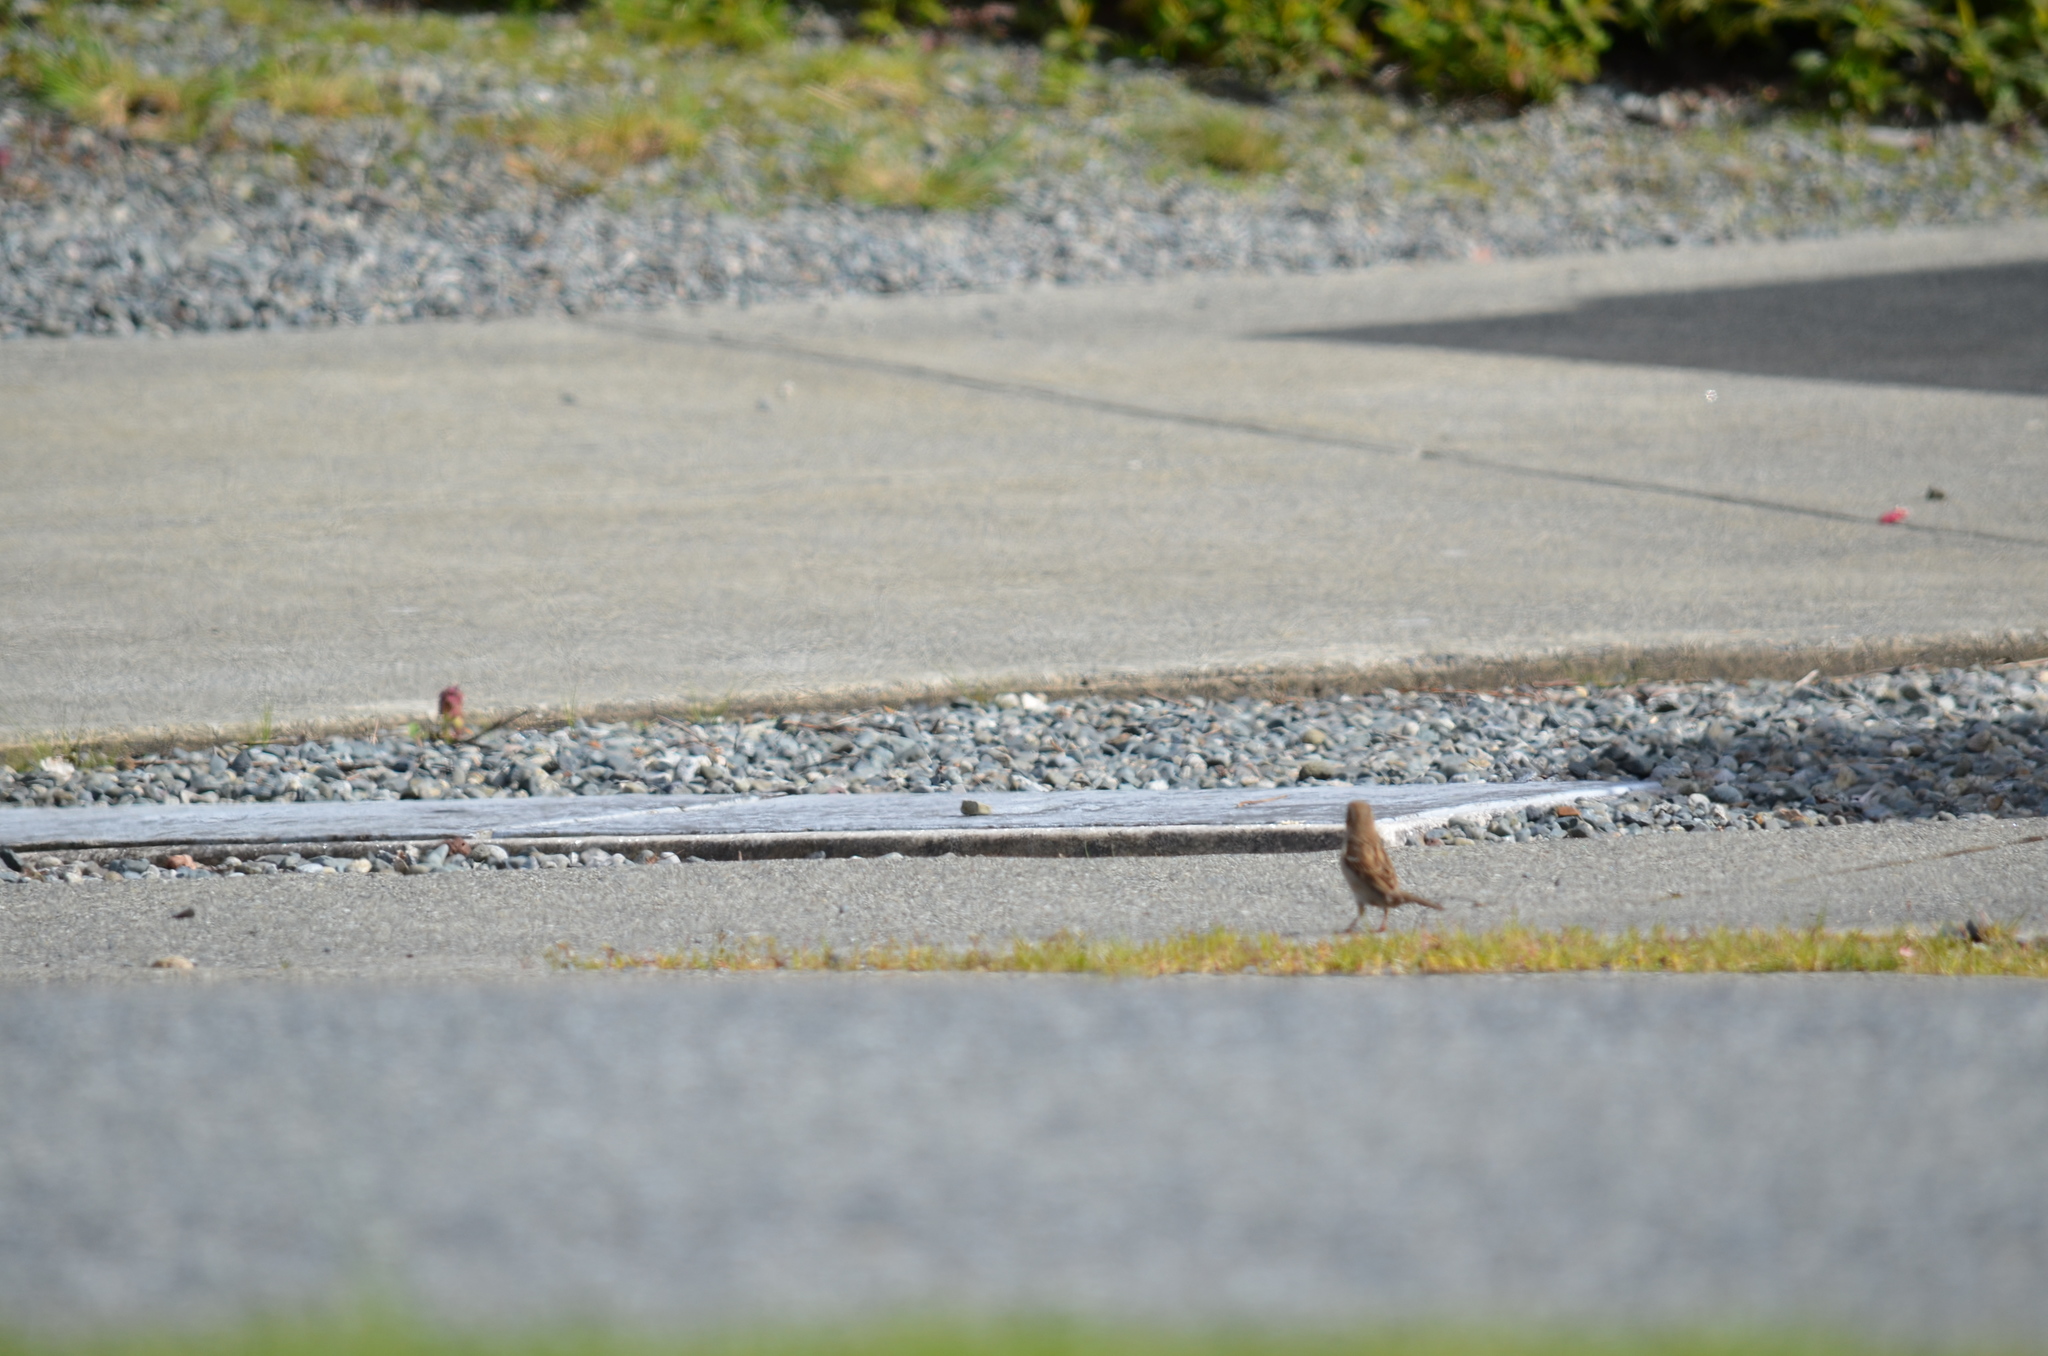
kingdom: Animalia
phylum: Chordata
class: Aves
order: Passeriformes
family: Passeridae
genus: Passer
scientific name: Passer domesticus
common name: House sparrow
